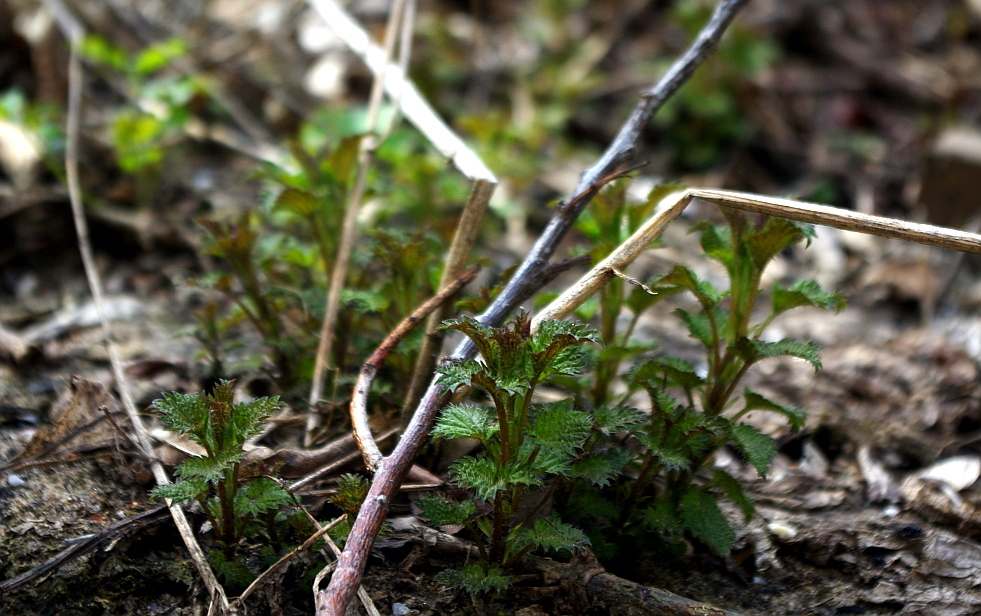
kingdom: Plantae
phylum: Tracheophyta
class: Magnoliopsida
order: Rosales
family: Urticaceae
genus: Urtica
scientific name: Urtica dioica
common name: Common nettle
